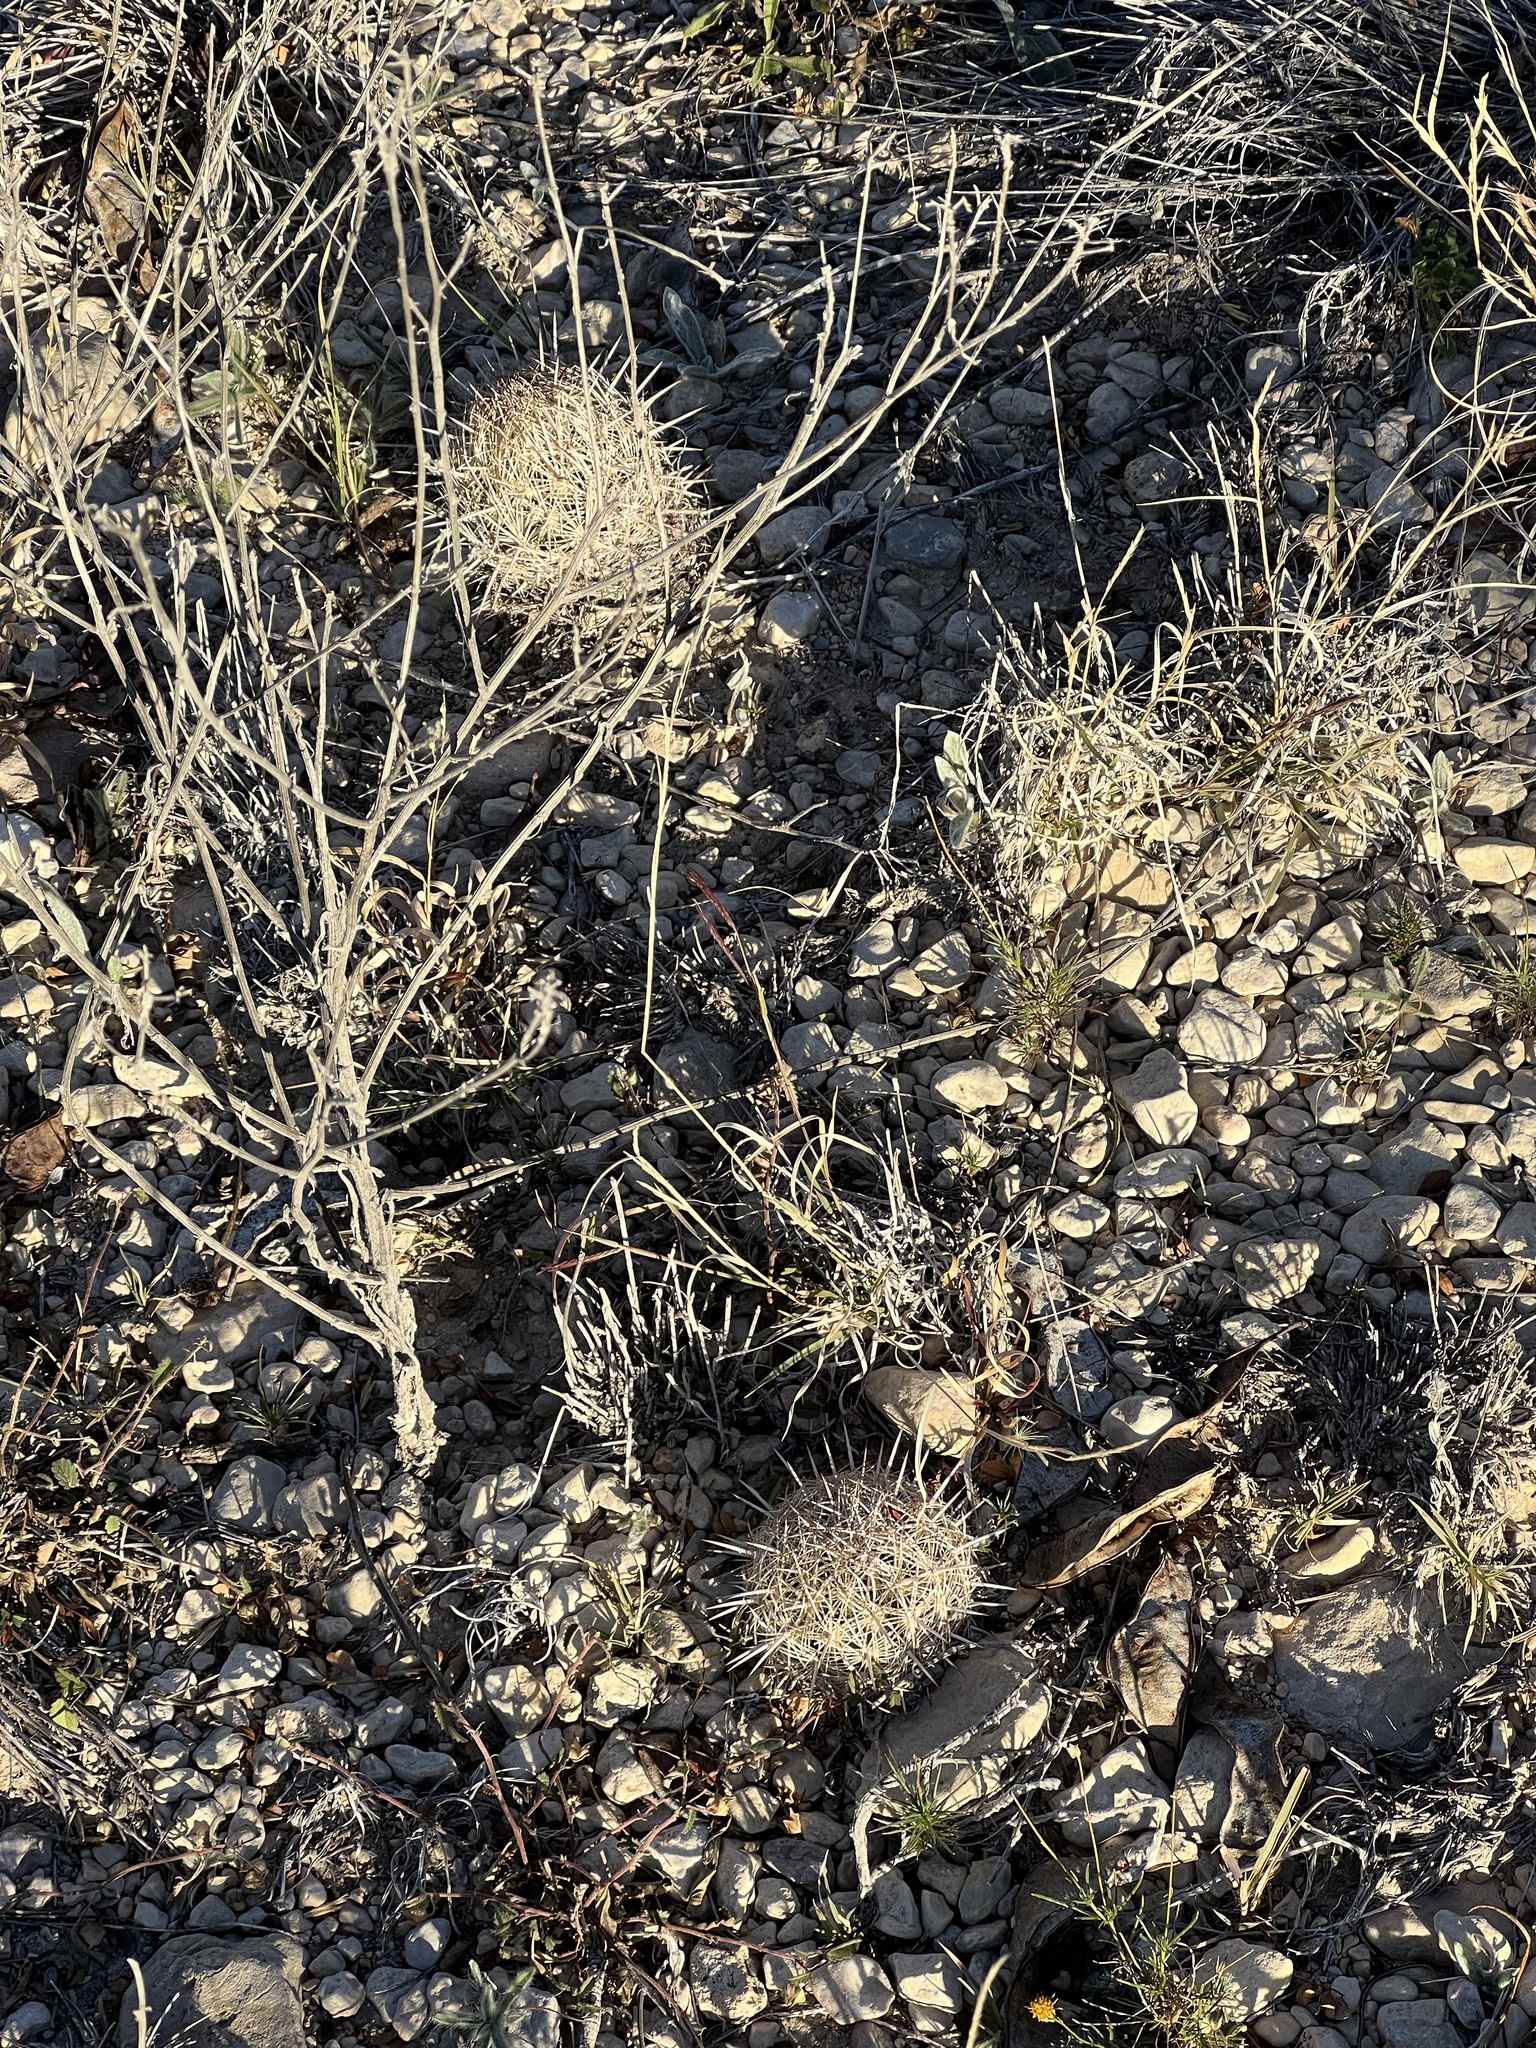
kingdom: Plantae
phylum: Tracheophyta
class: Magnoliopsida
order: Caryophyllales
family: Cactaceae
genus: Coryphantha
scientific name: Coryphantha echinus
